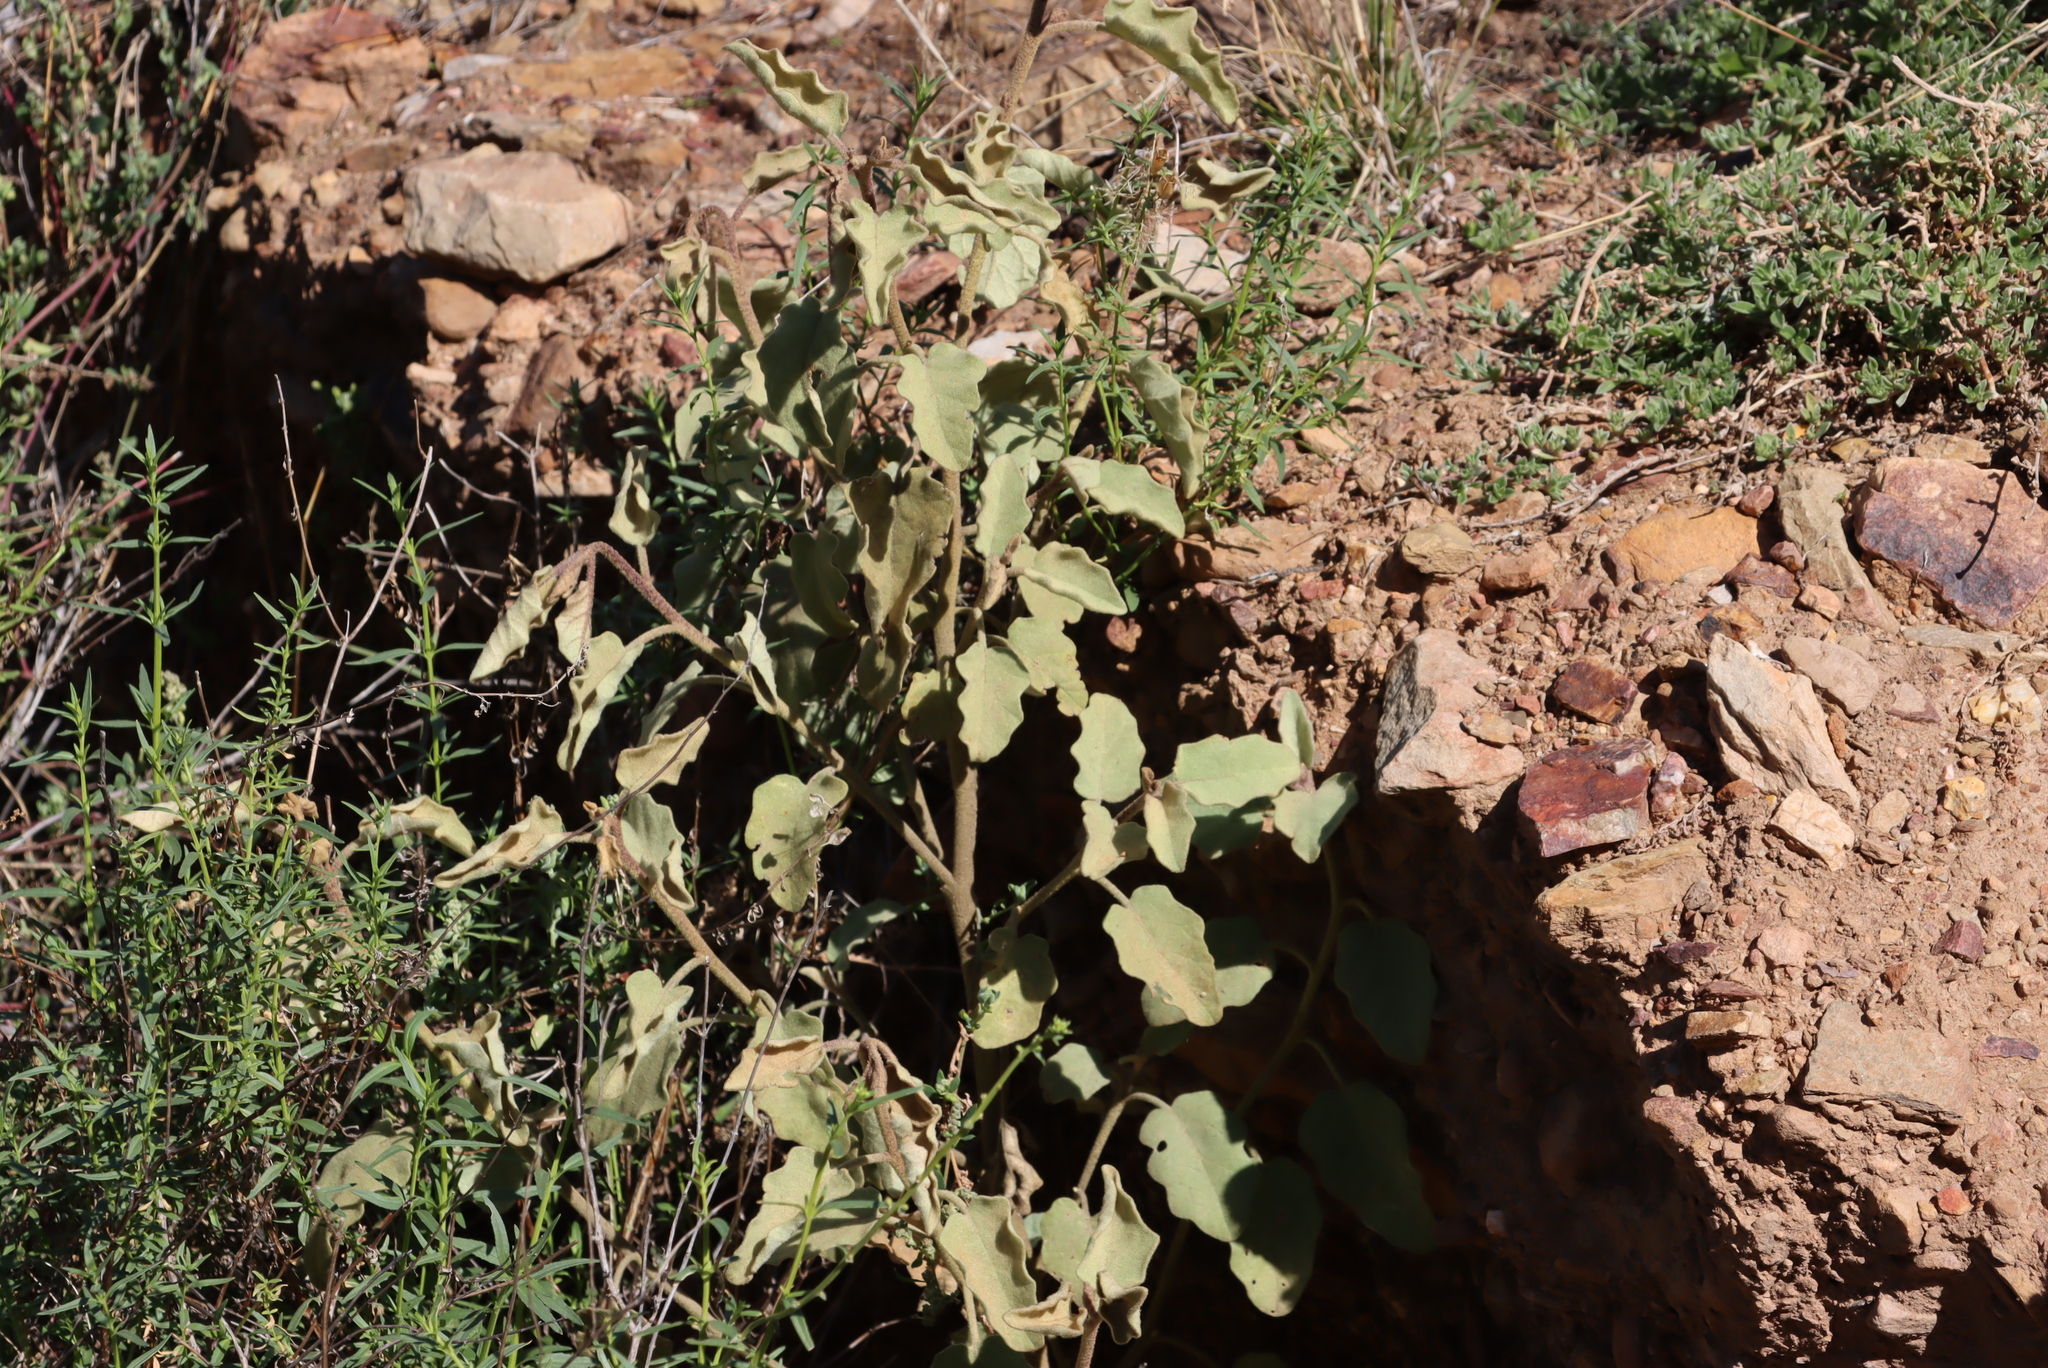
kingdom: Plantae
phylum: Tracheophyta
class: Magnoliopsida
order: Solanales
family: Solanaceae
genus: Solanum
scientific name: Solanum tomentosum
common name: Wild aubergine
